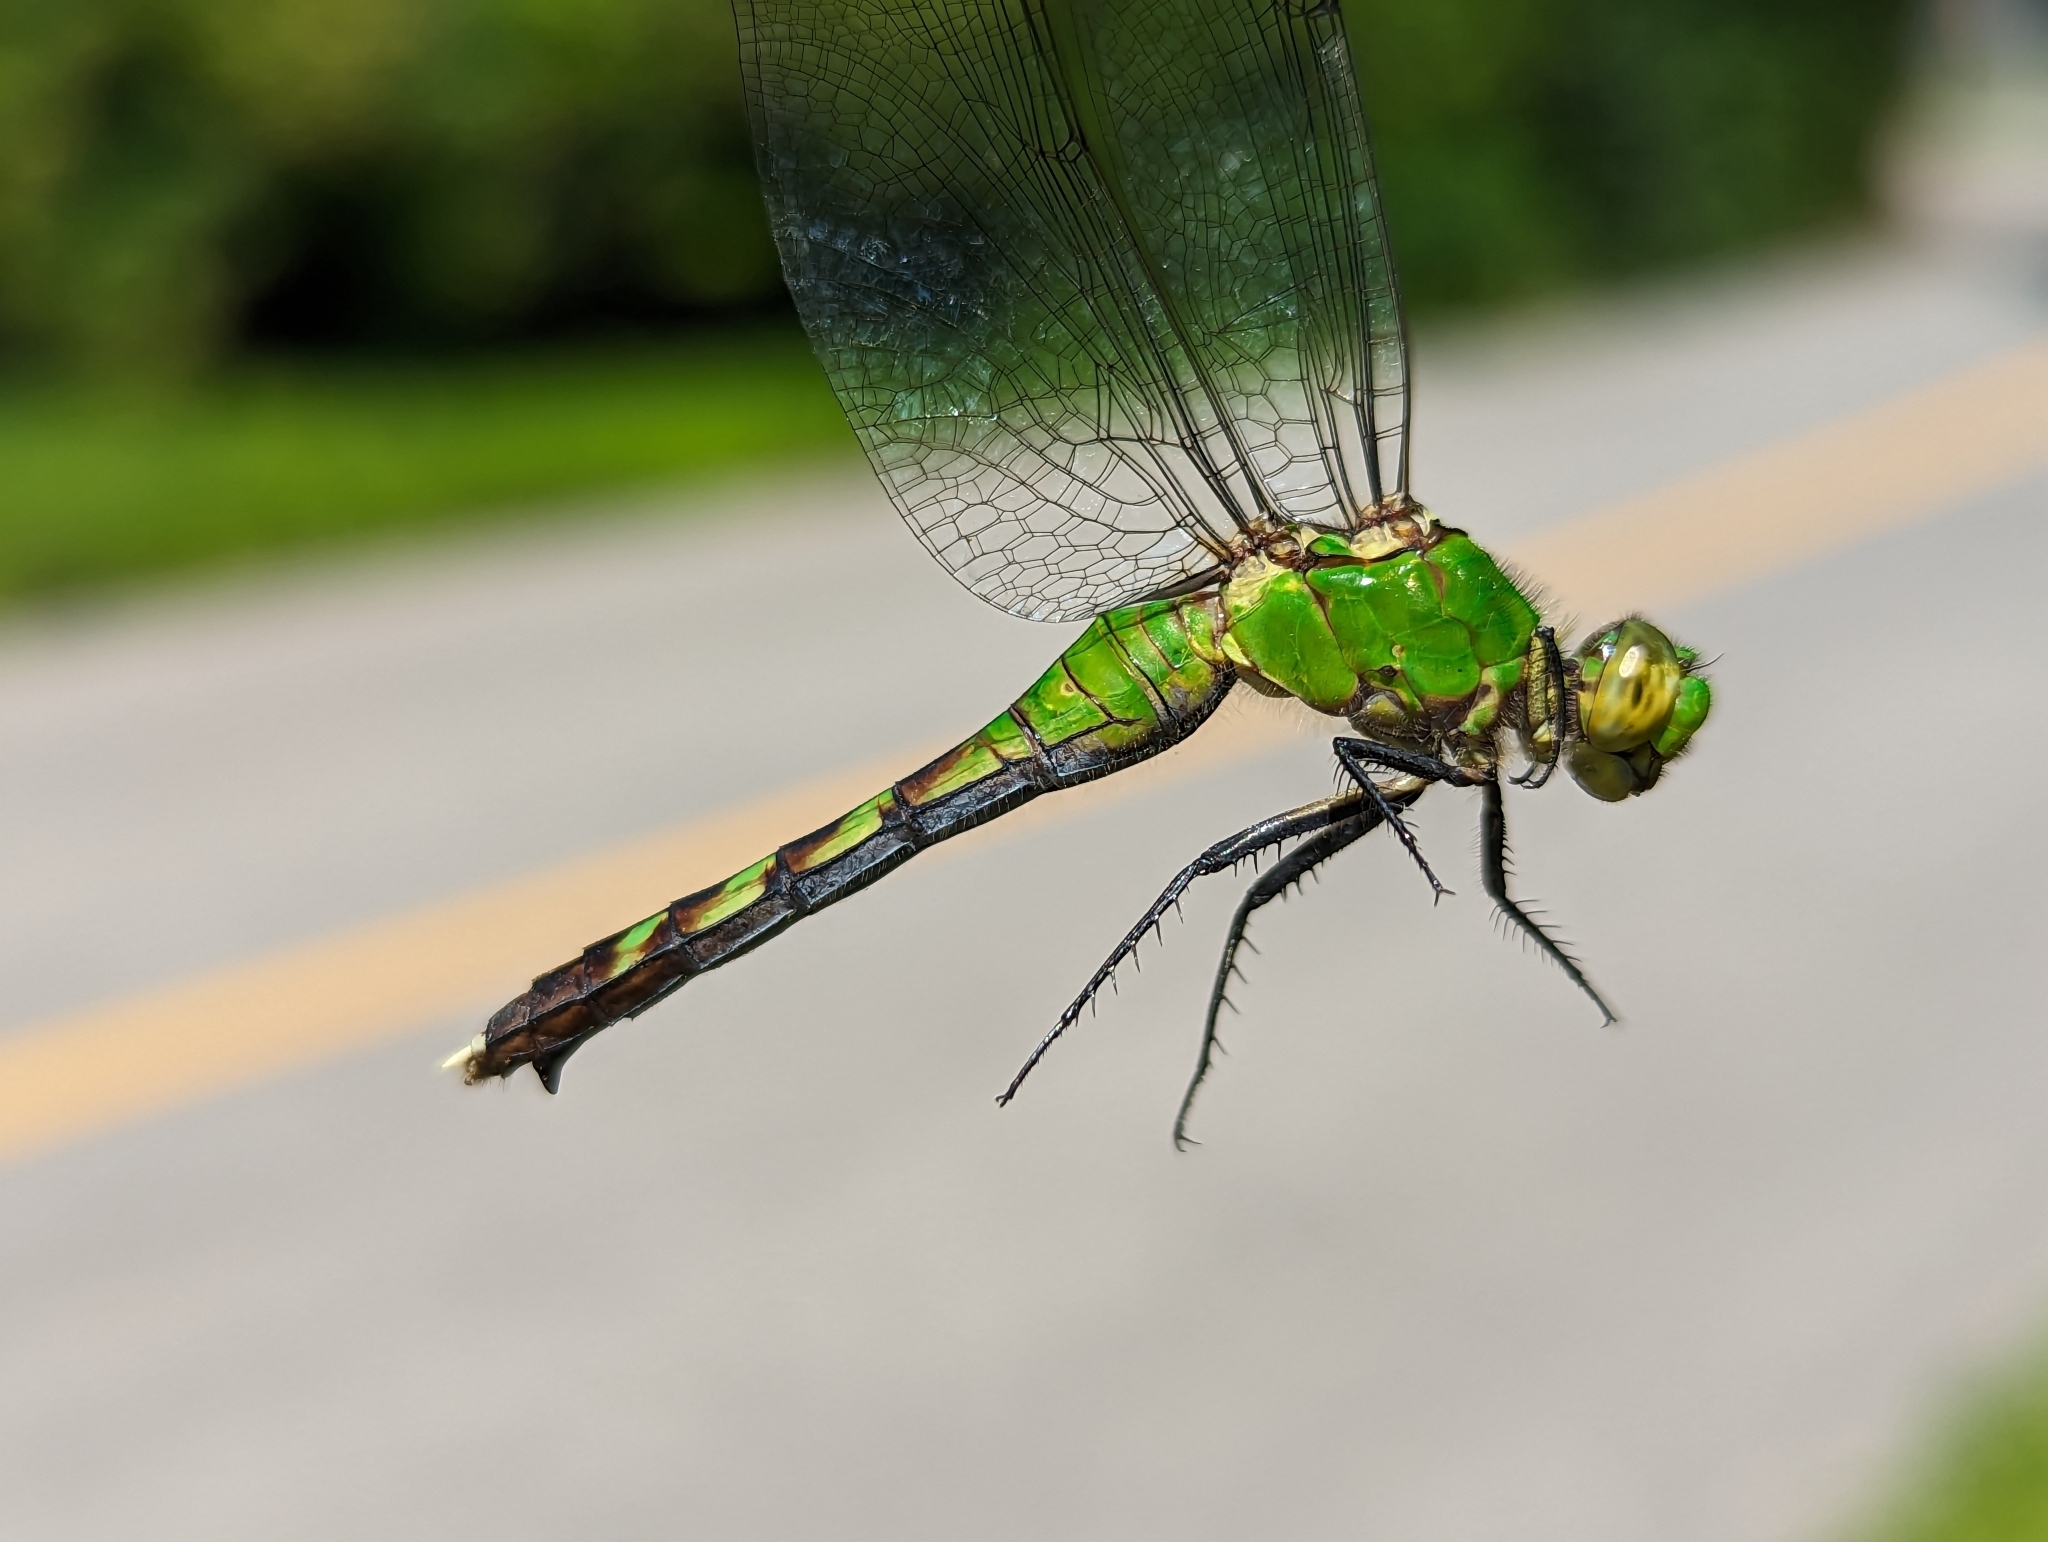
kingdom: Animalia
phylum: Arthropoda
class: Insecta
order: Odonata
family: Libellulidae
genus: Erythemis
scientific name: Erythemis simplicicollis
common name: Eastern pondhawk
